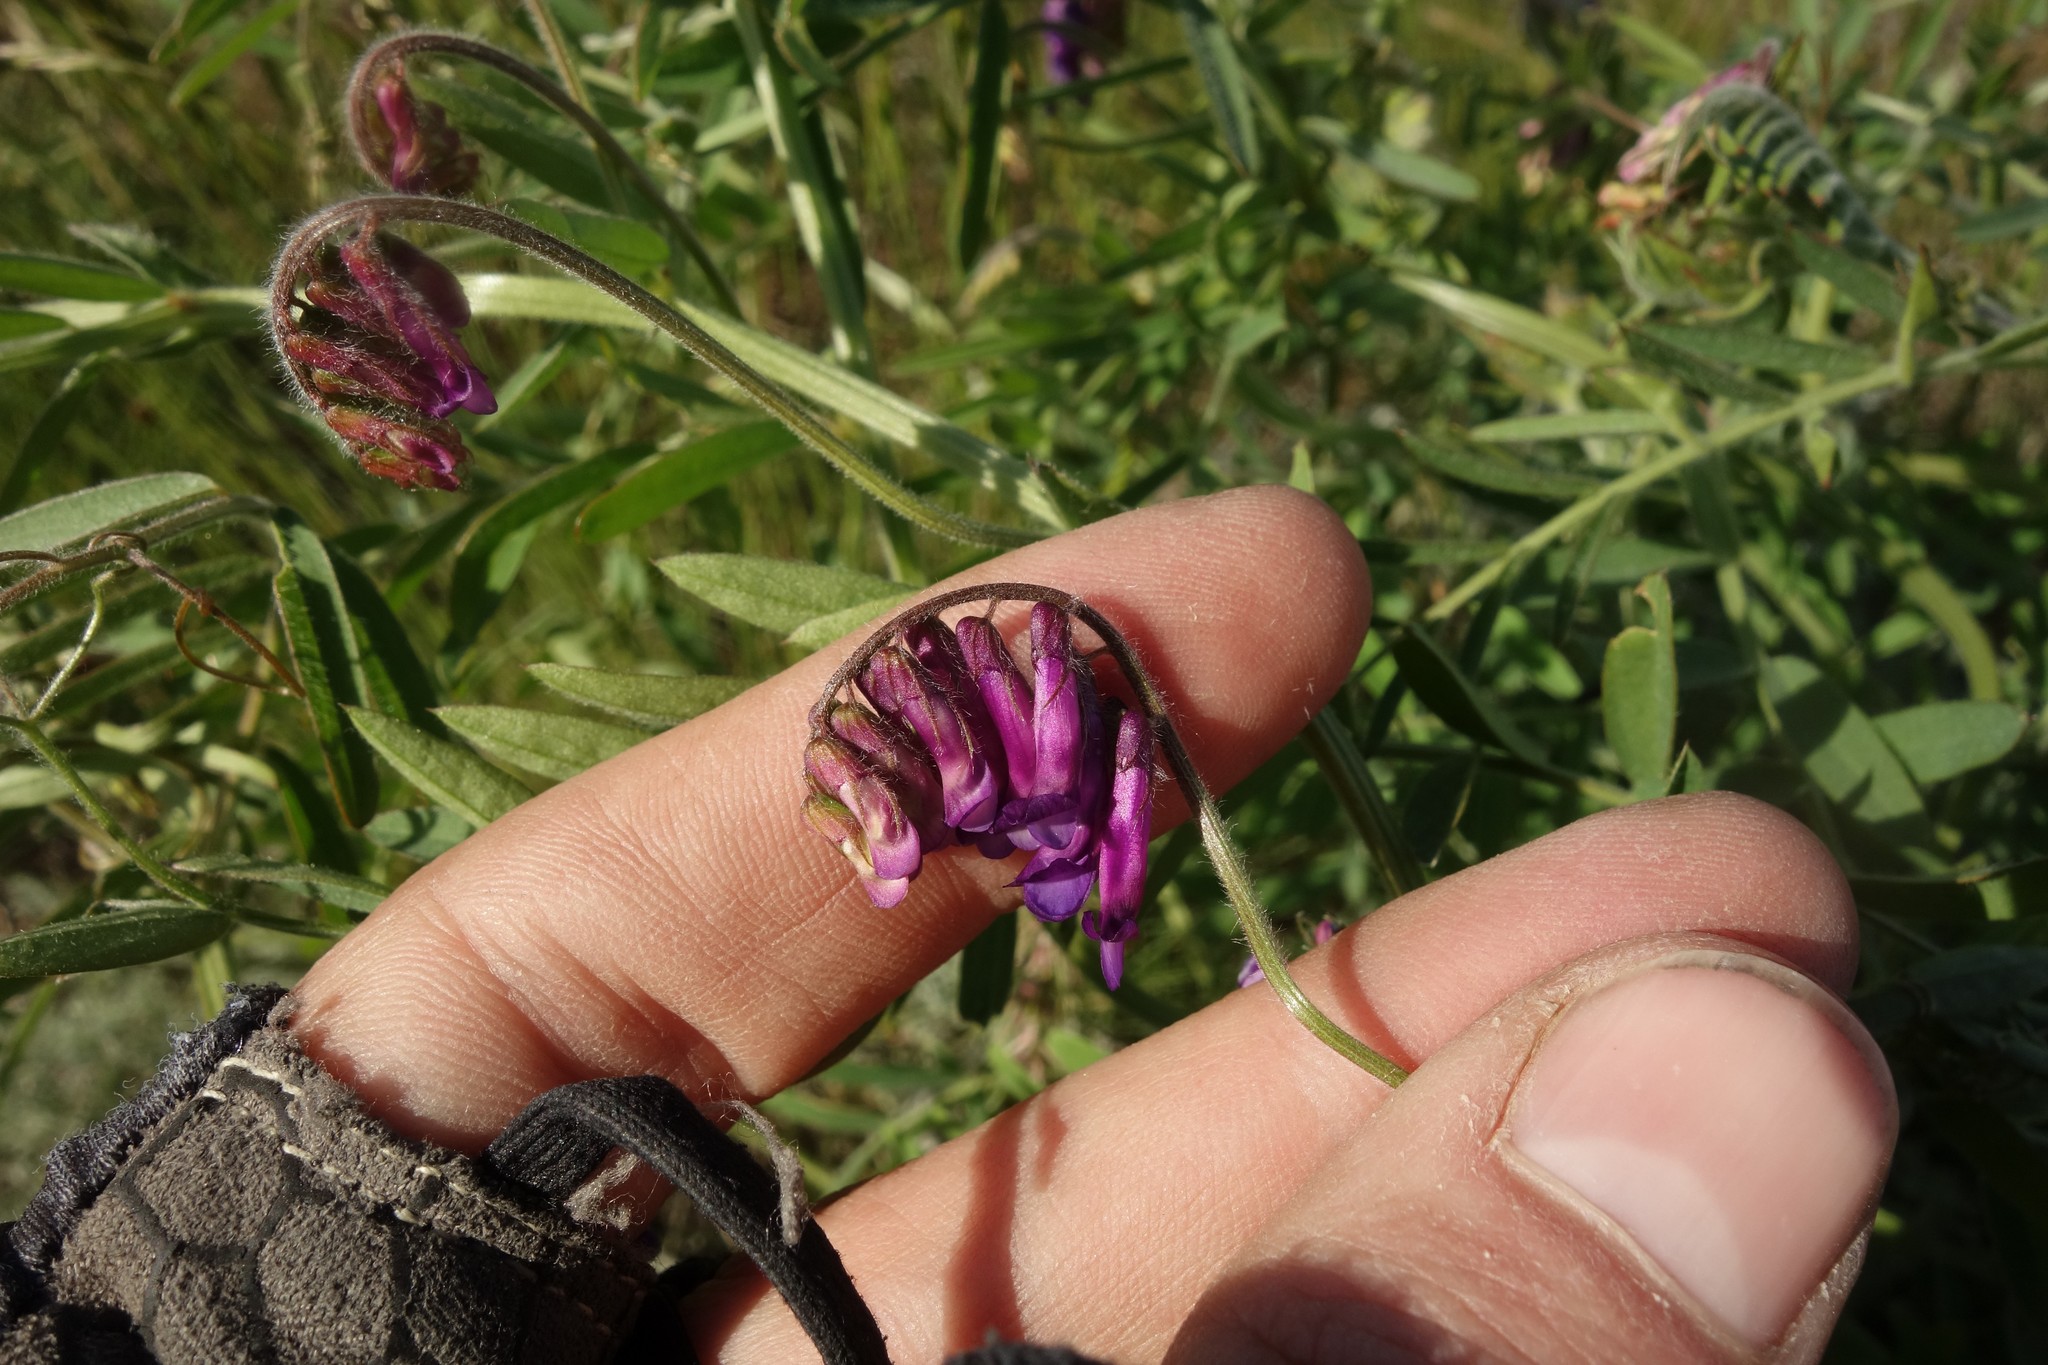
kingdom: Plantae
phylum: Tracheophyta
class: Magnoliopsida
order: Fabales
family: Fabaceae
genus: Vicia
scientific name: Vicia villosa
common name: Fodder vetch
